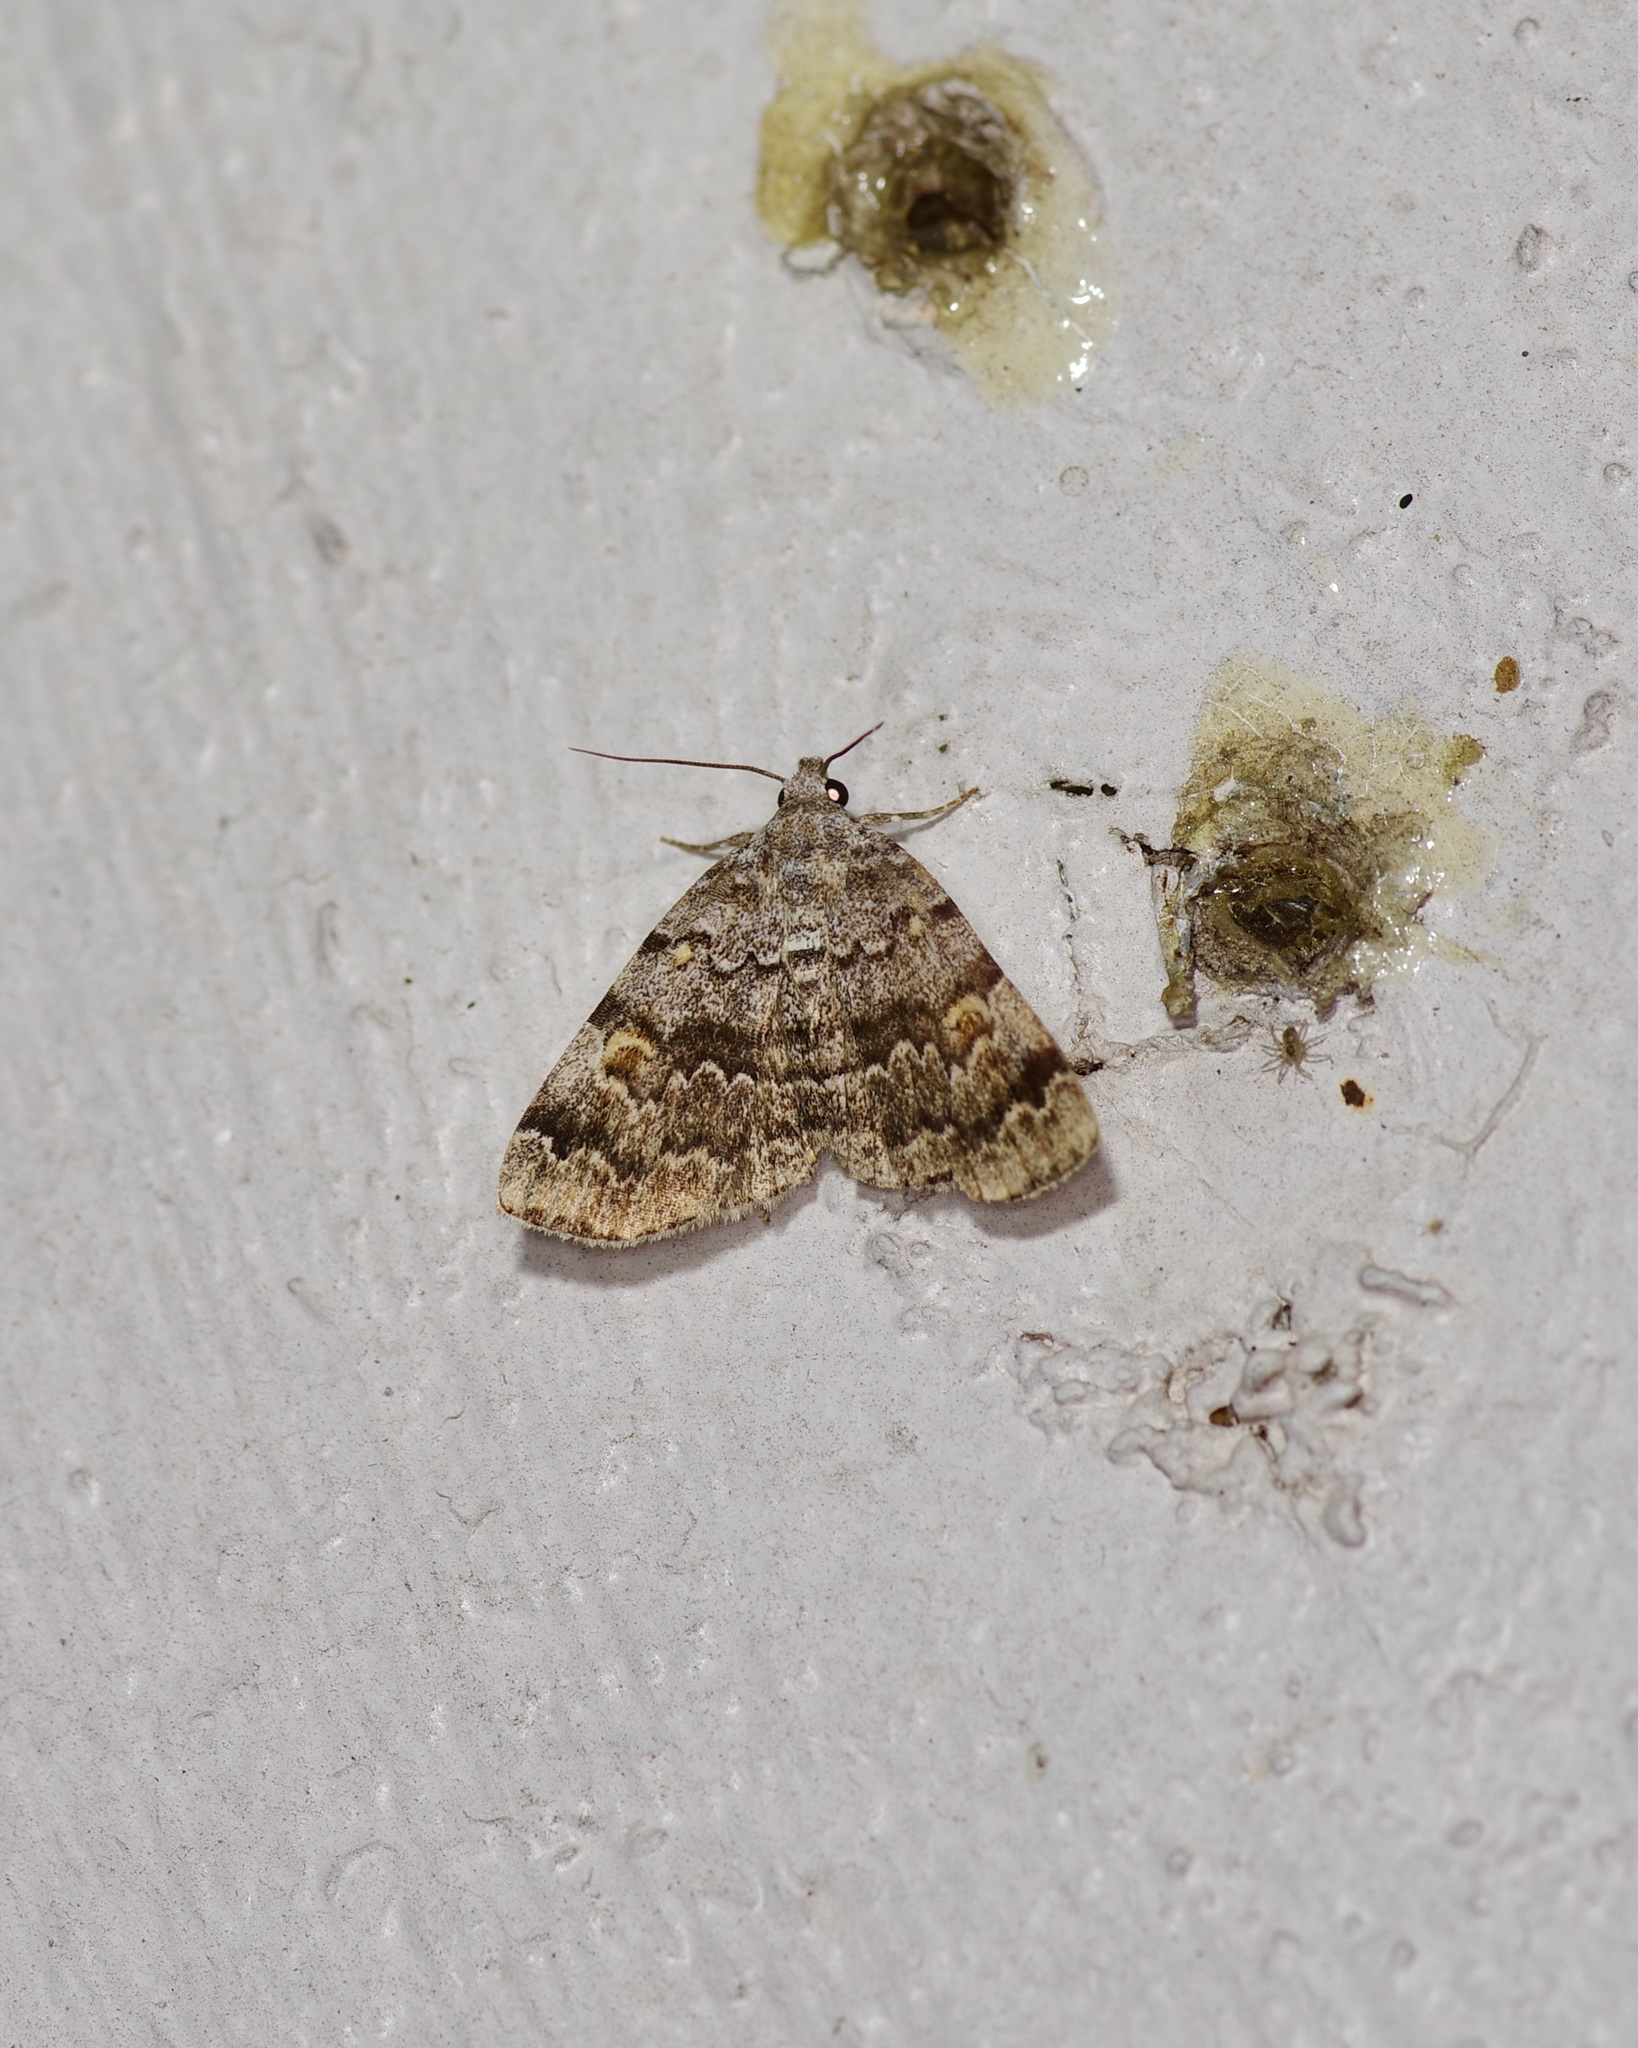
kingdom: Animalia
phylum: Arthropoda
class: Insecta
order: Lepidoptera
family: Erebidae
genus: Idia
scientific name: Idia americalis
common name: American idia moth
